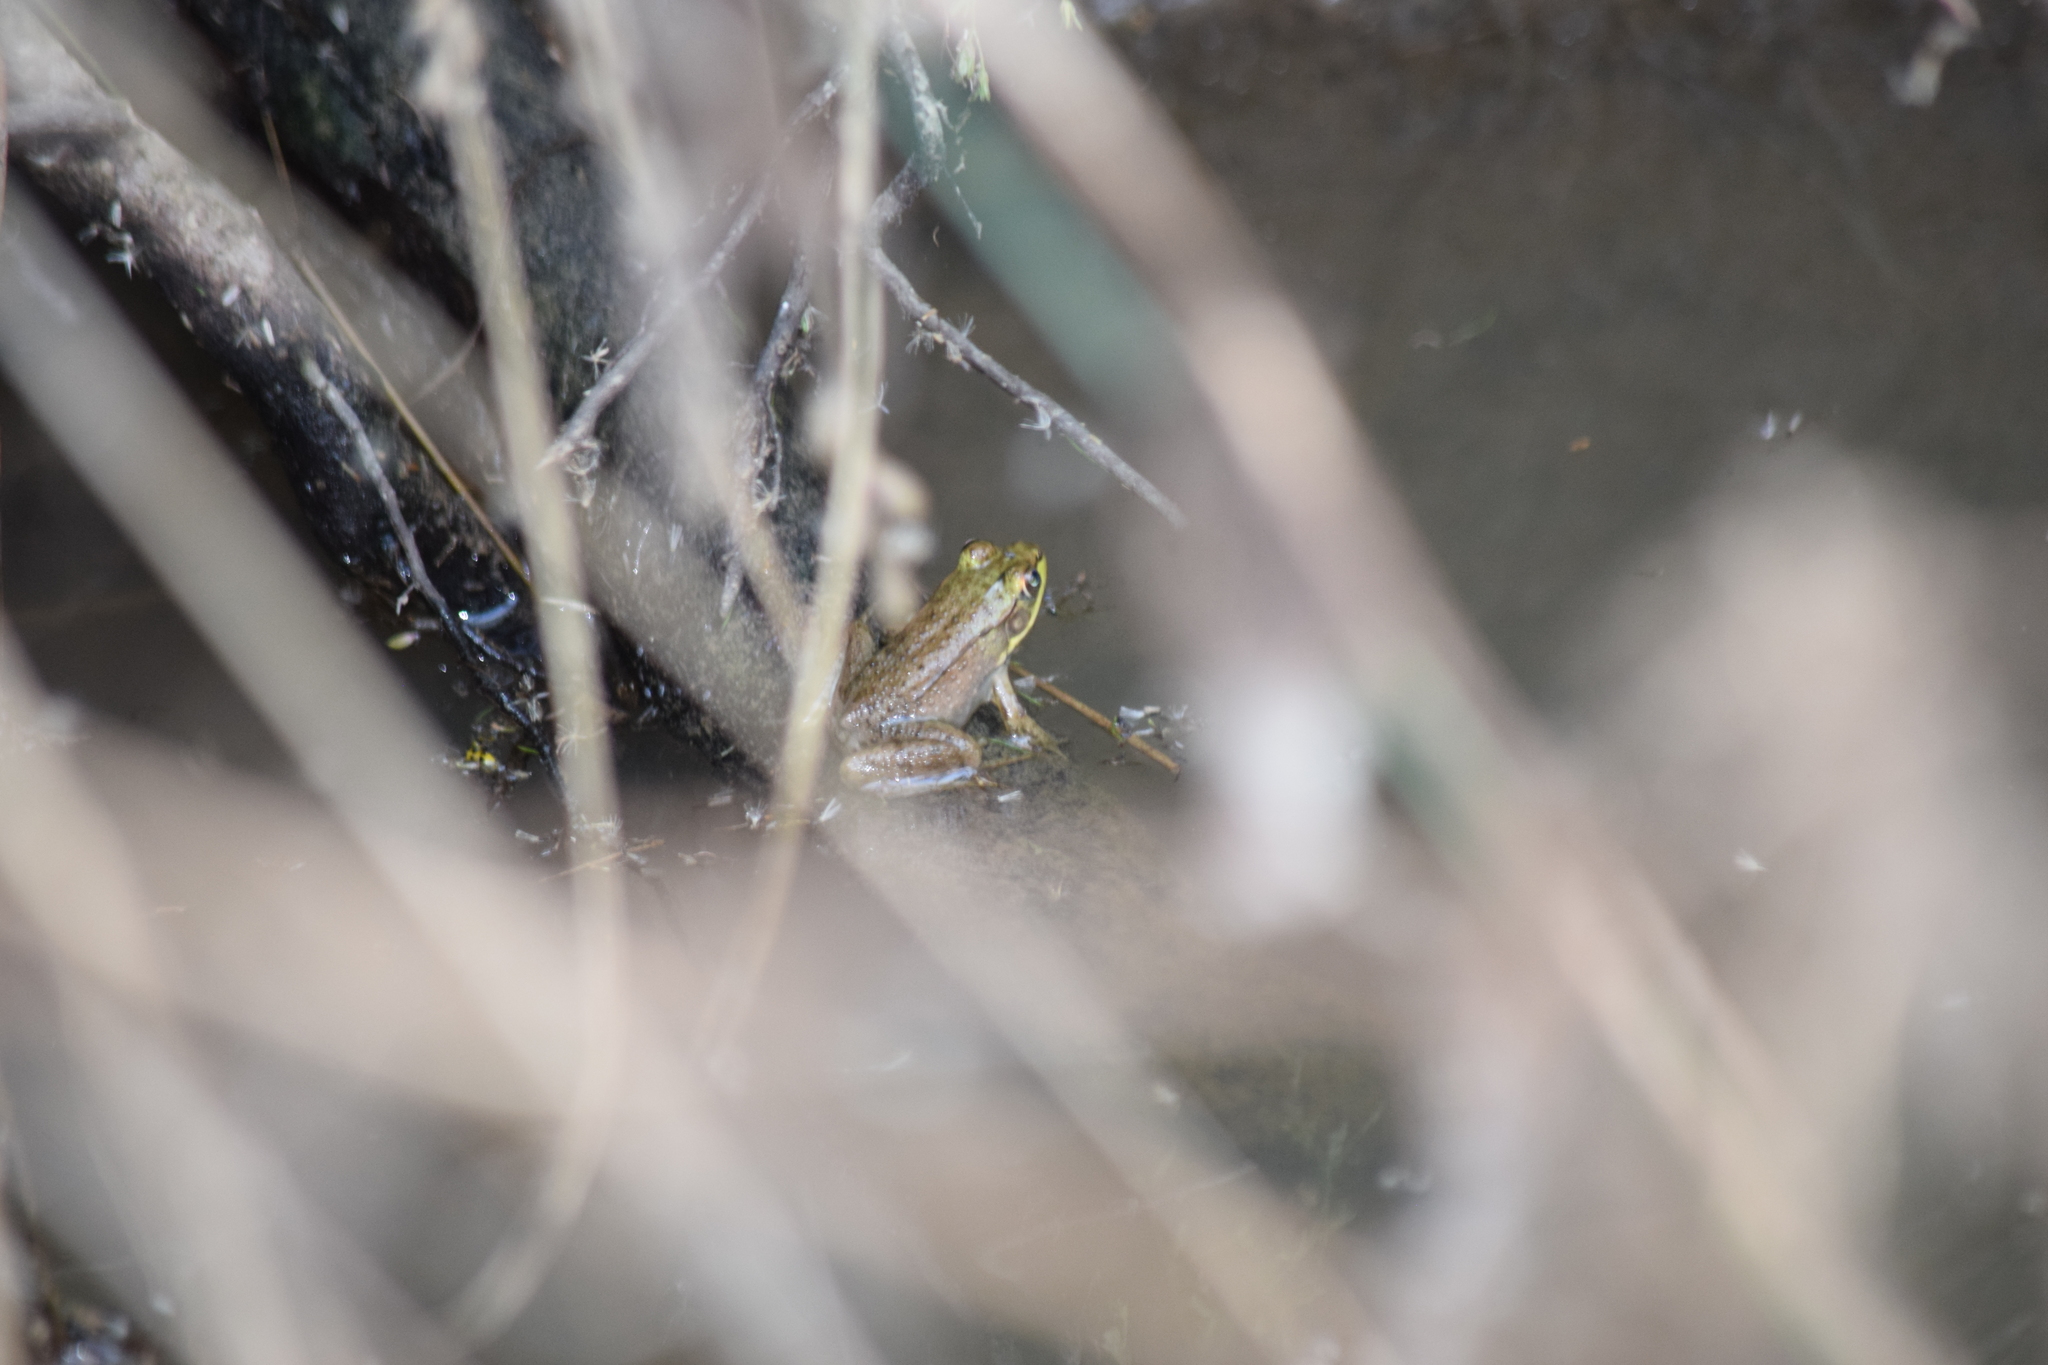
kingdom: Animalia
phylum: Chordata
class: Amphibia
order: Anura
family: Ranidae
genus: Lithobates
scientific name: Lithobates clamitans
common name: Green frog
